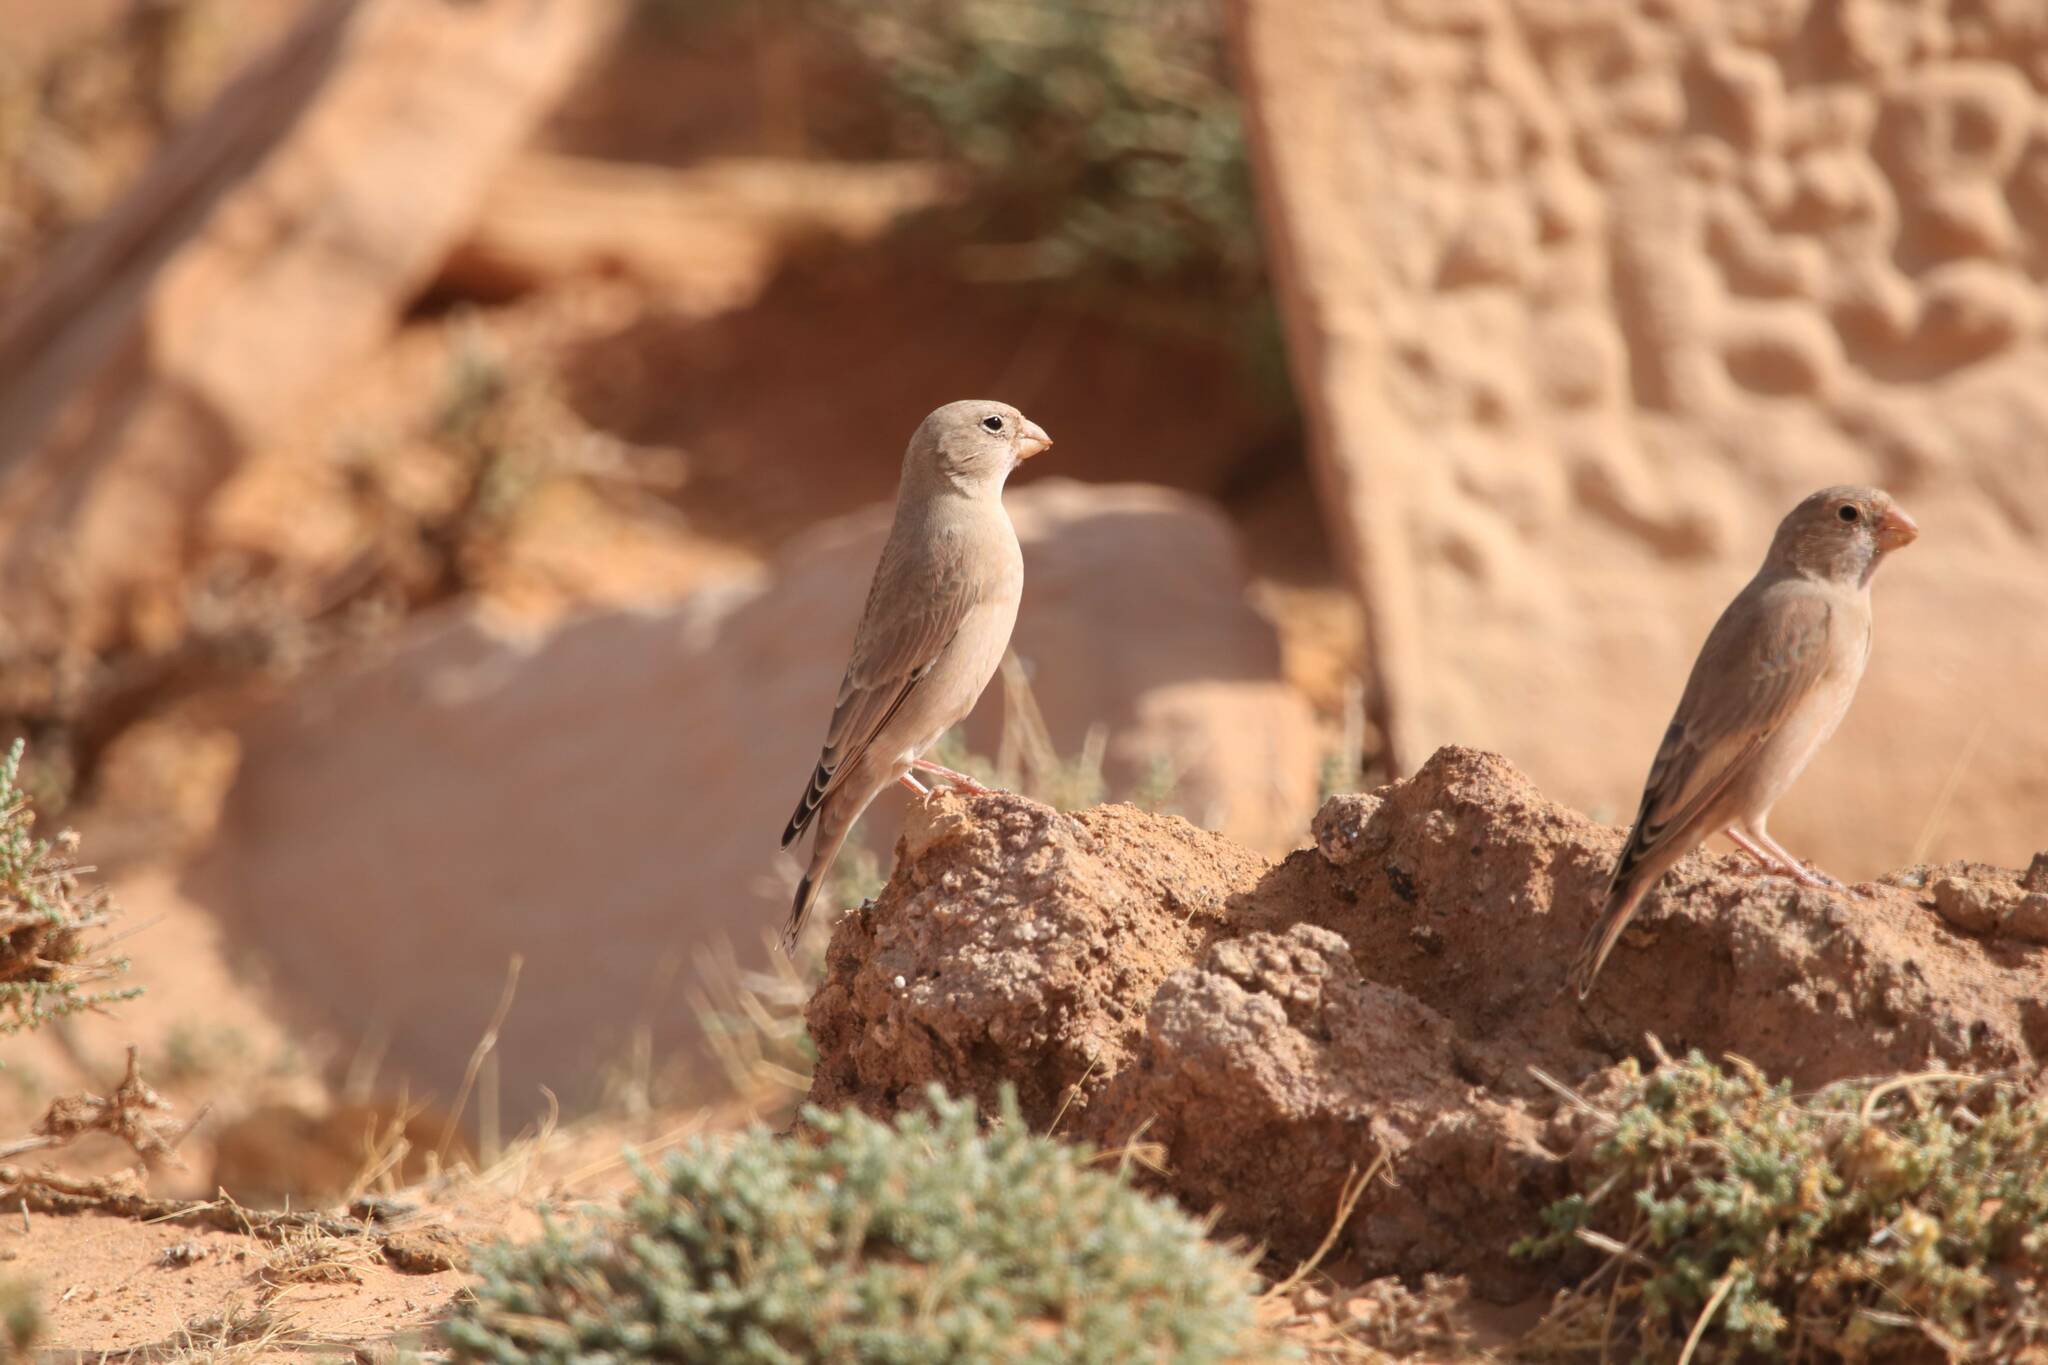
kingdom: Animalia
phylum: Chordata
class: Aves
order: Passeriformes
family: Fringillidae
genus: Bucanetes
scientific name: Bucanetes githagineus
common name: Trumpeter finch
